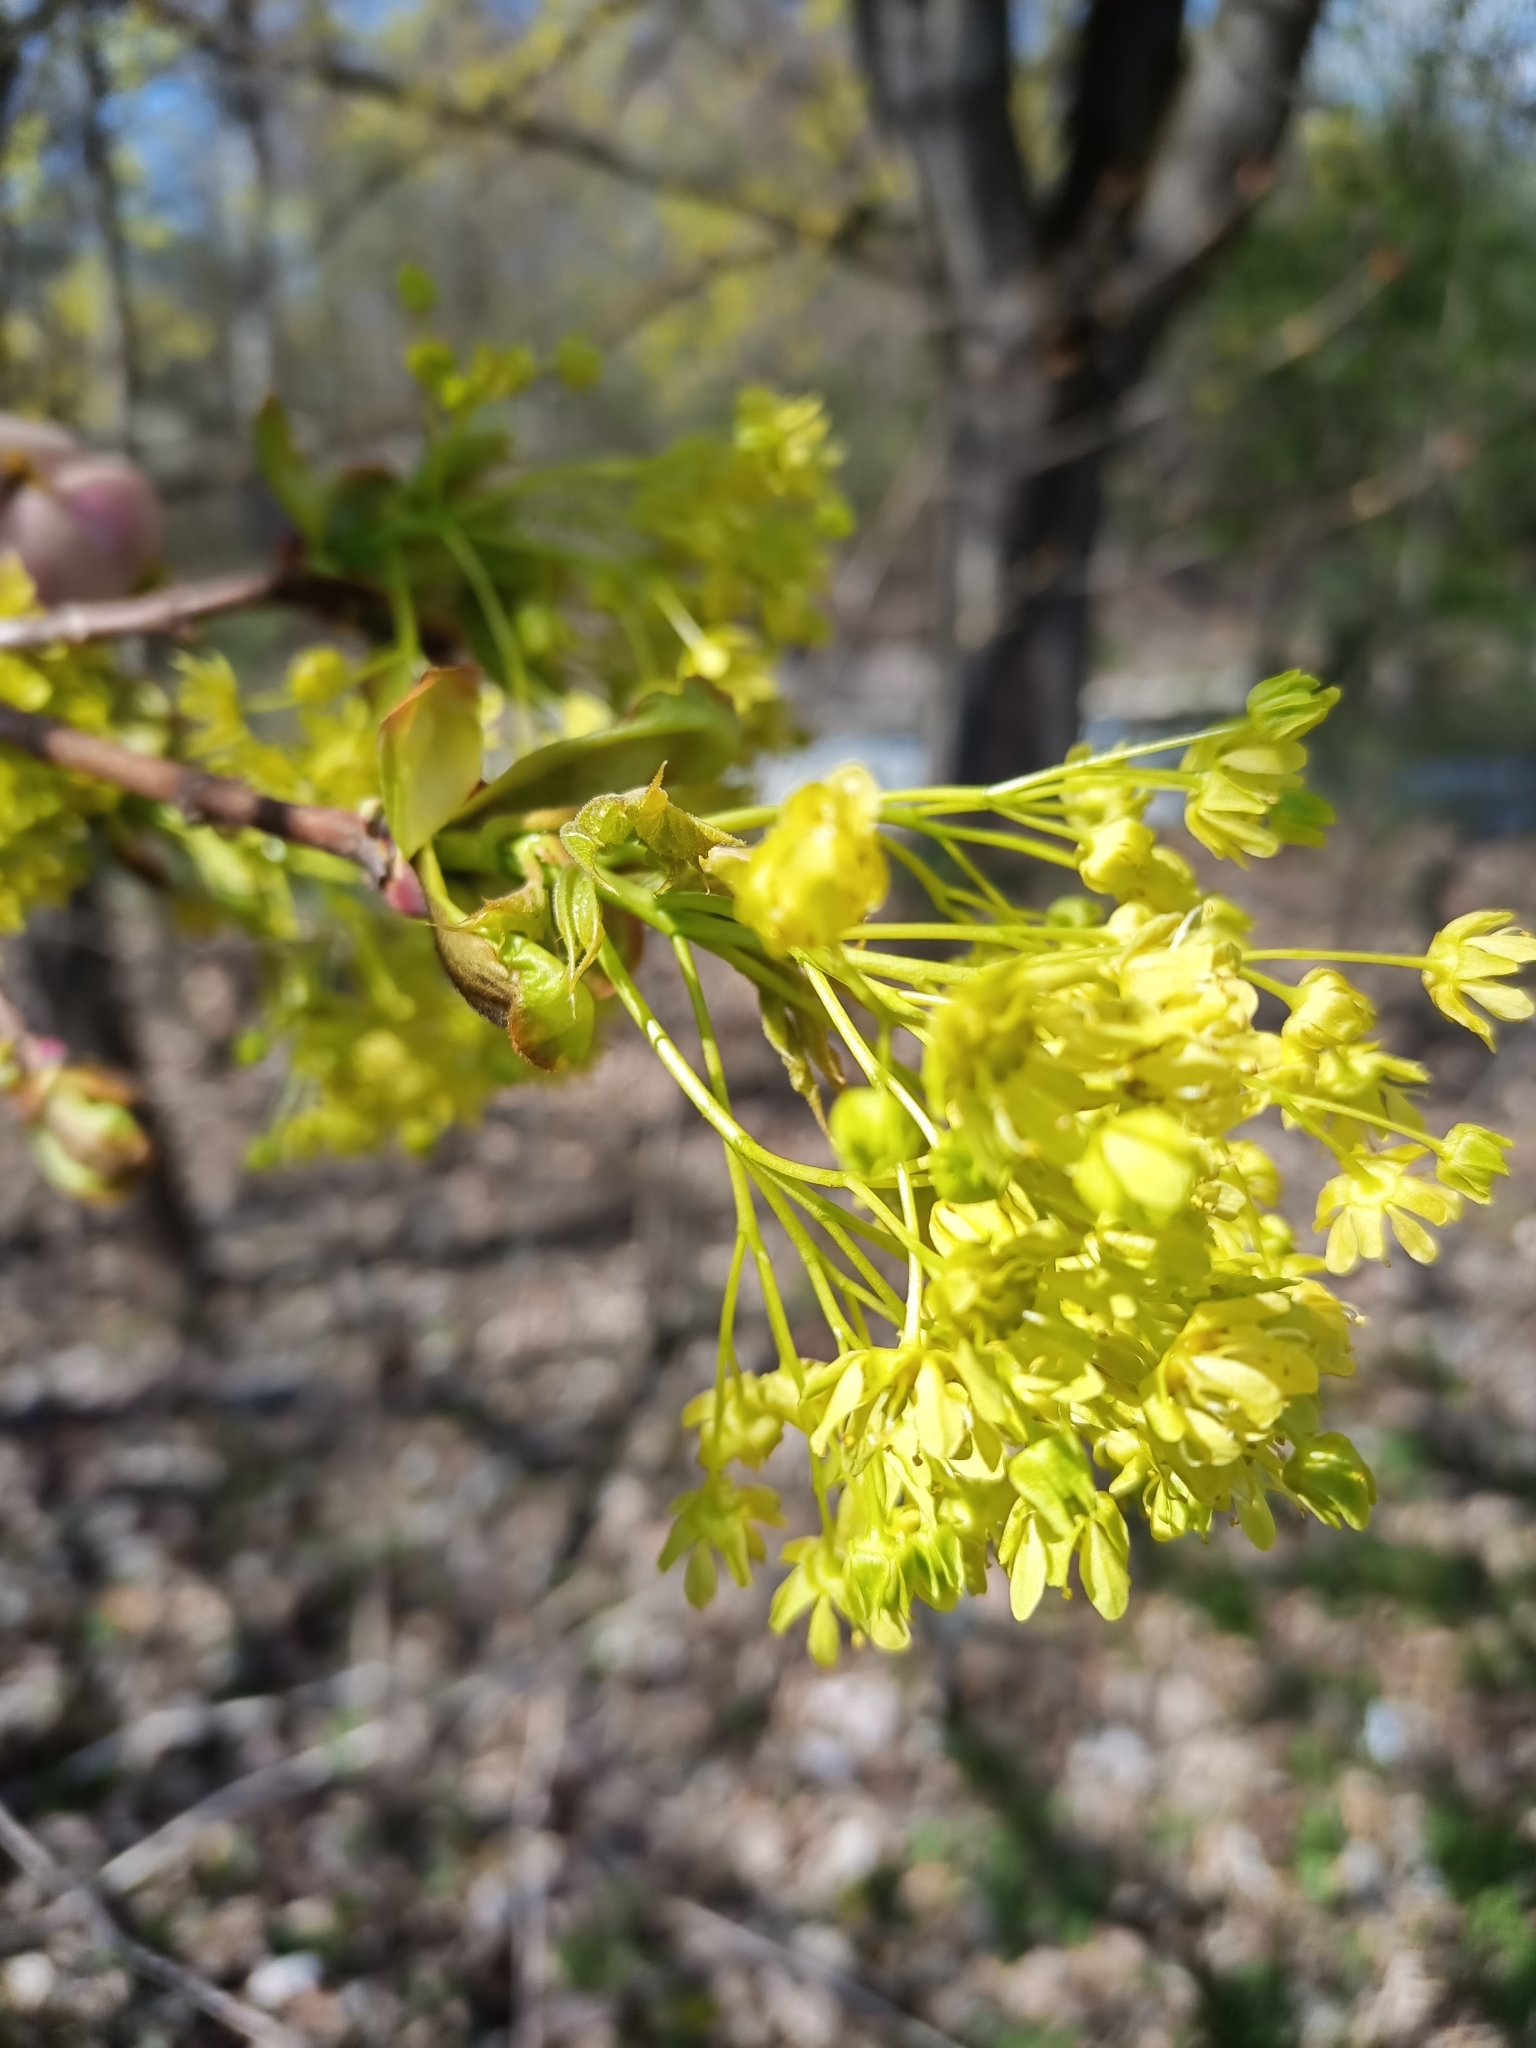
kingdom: Plantae
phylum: Tracheophyta
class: Magnoliopsida
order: Sapindales
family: Sapindaceae
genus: Acer
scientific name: Acer platanoides
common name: Norway maple
